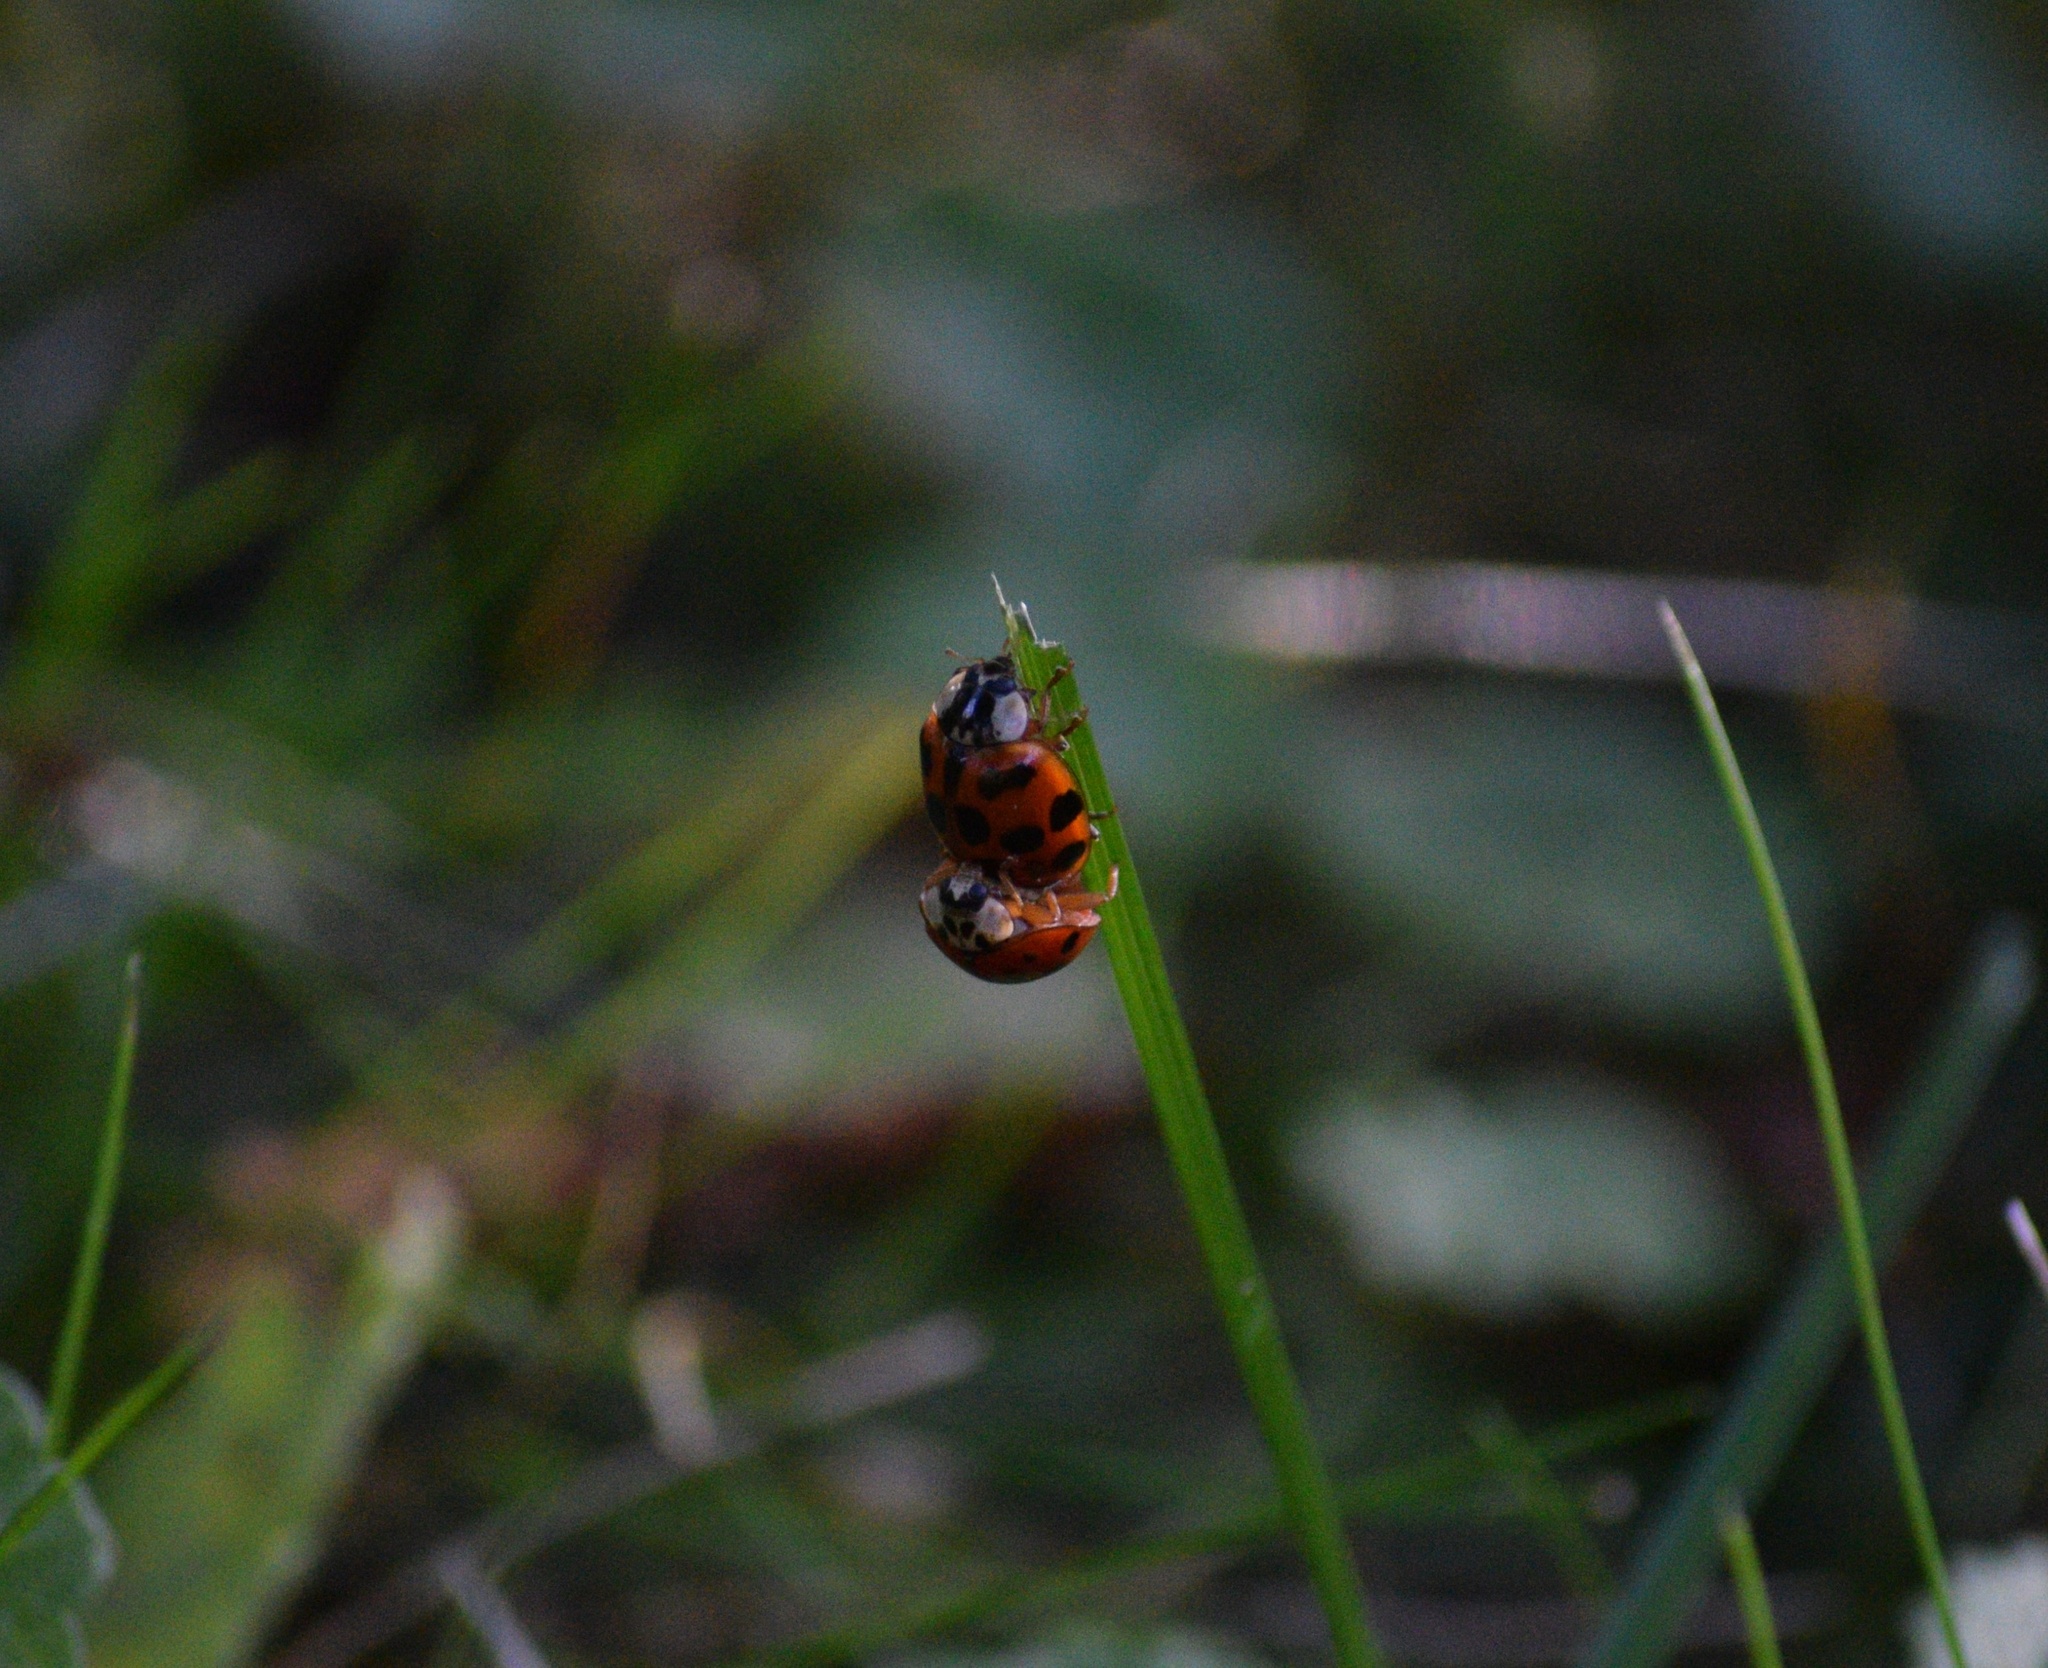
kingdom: Animalia
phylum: Arthropoda
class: Insecta
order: Coleoptera
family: Coccinellidae
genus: Harmonia
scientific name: Harmonia axyridis
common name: Harlequin ladybird
